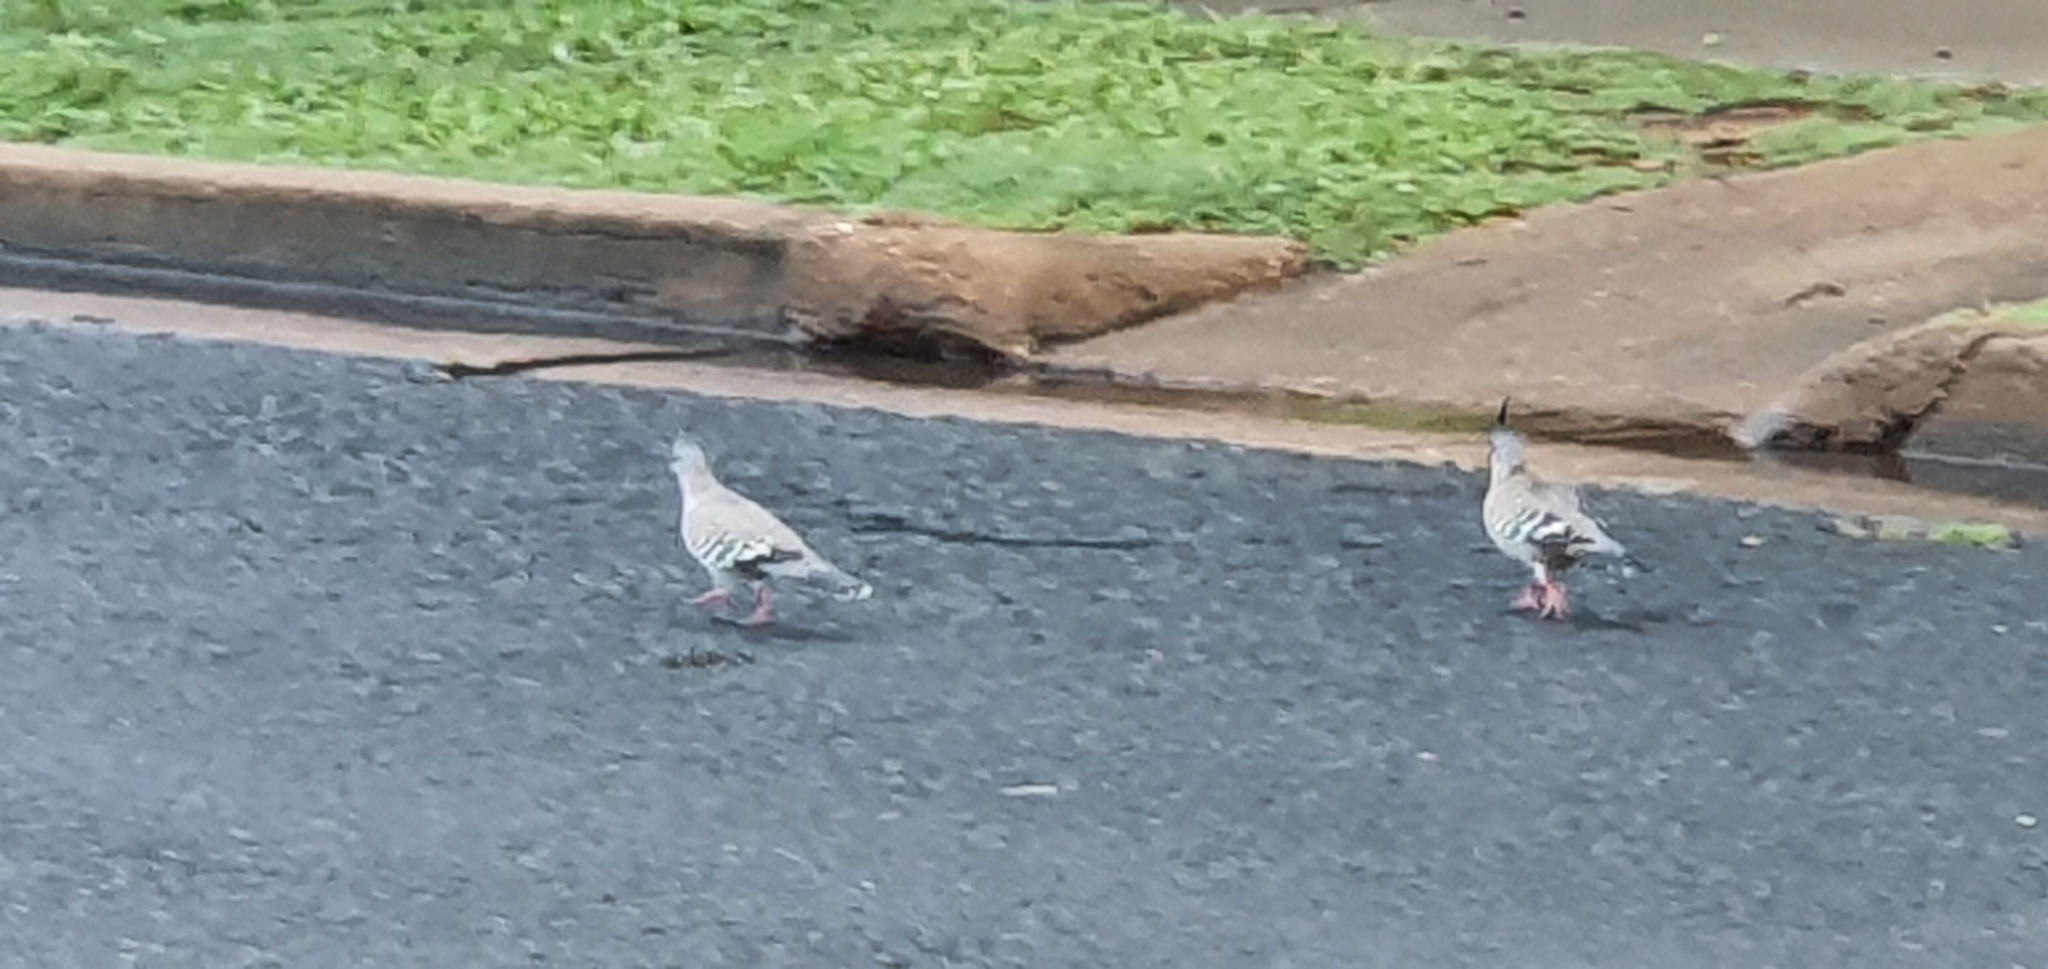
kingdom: Animalia
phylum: Chordata
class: Aves
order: Columbiformes
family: Columbidae
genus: Ocyphaps
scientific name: Ocyphaps lophotes
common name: Crested pigeon
